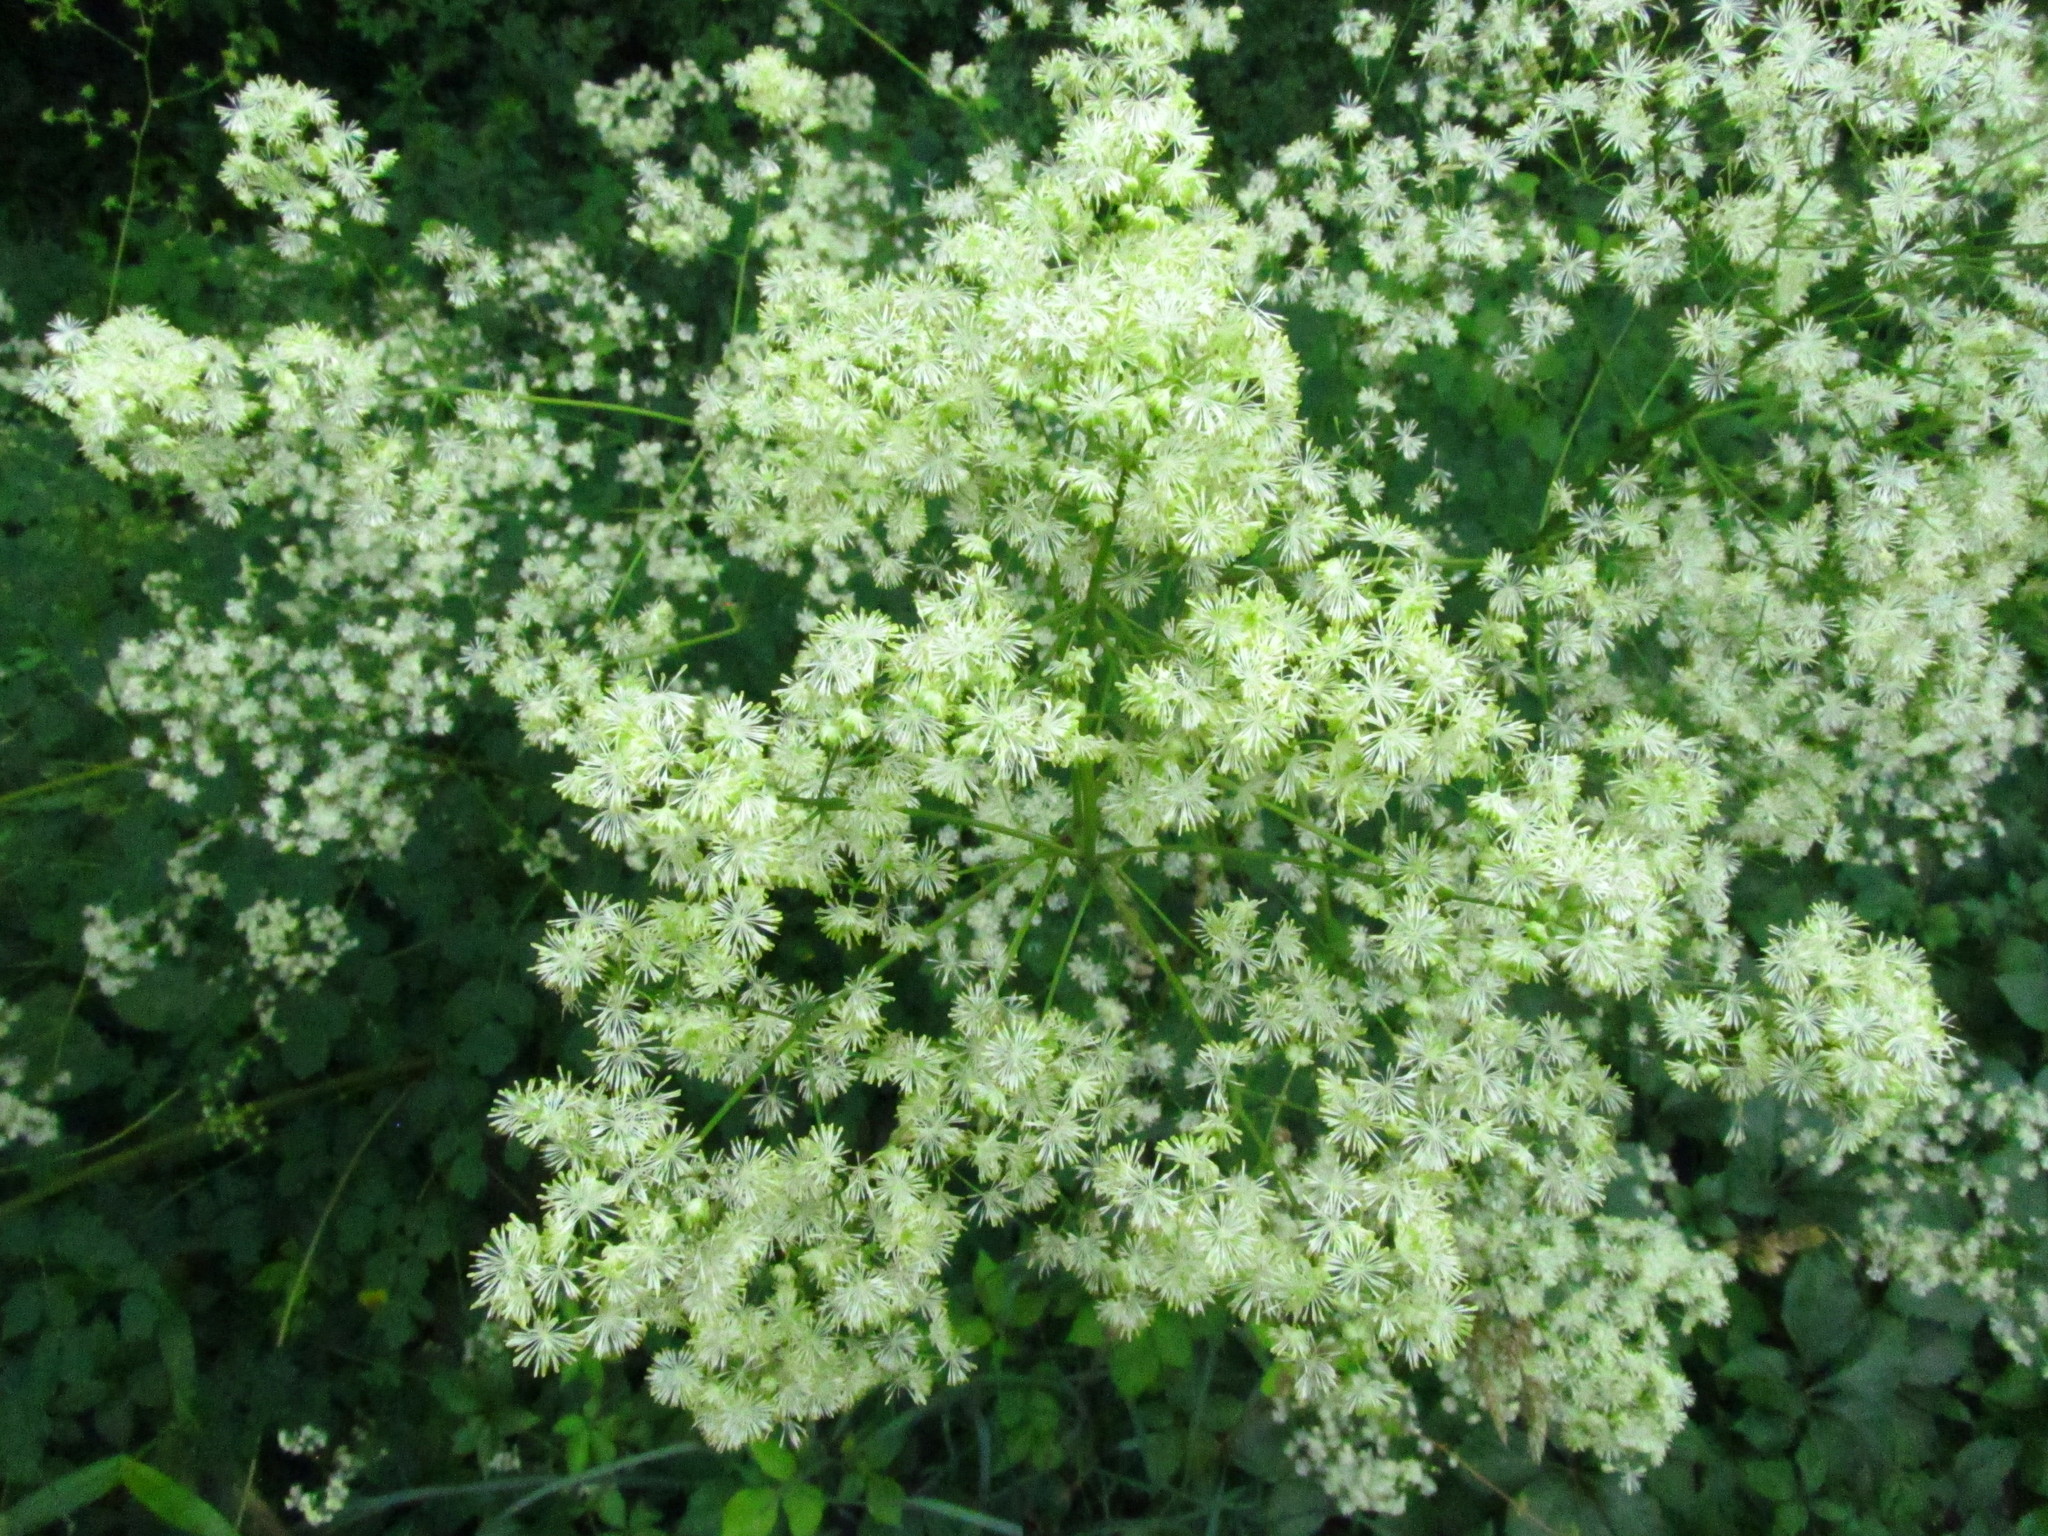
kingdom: Plantae
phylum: Tracheophyta
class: Magnoliopsida
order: Ranunculales
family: Ranunculaceae
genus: Thalictrum
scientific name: Thalictrum pubescens
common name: King-of-the-meadow
